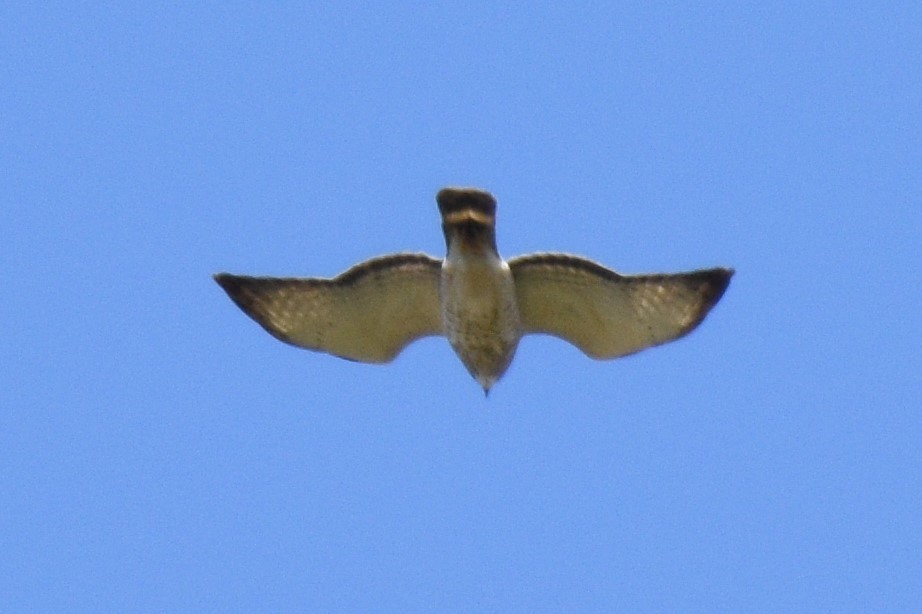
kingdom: Animalia
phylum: Chordata
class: Aves
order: Accipitriformes
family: Accipitridae
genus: Buteo
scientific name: Buteo platypterus
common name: Broad-winged hawk
